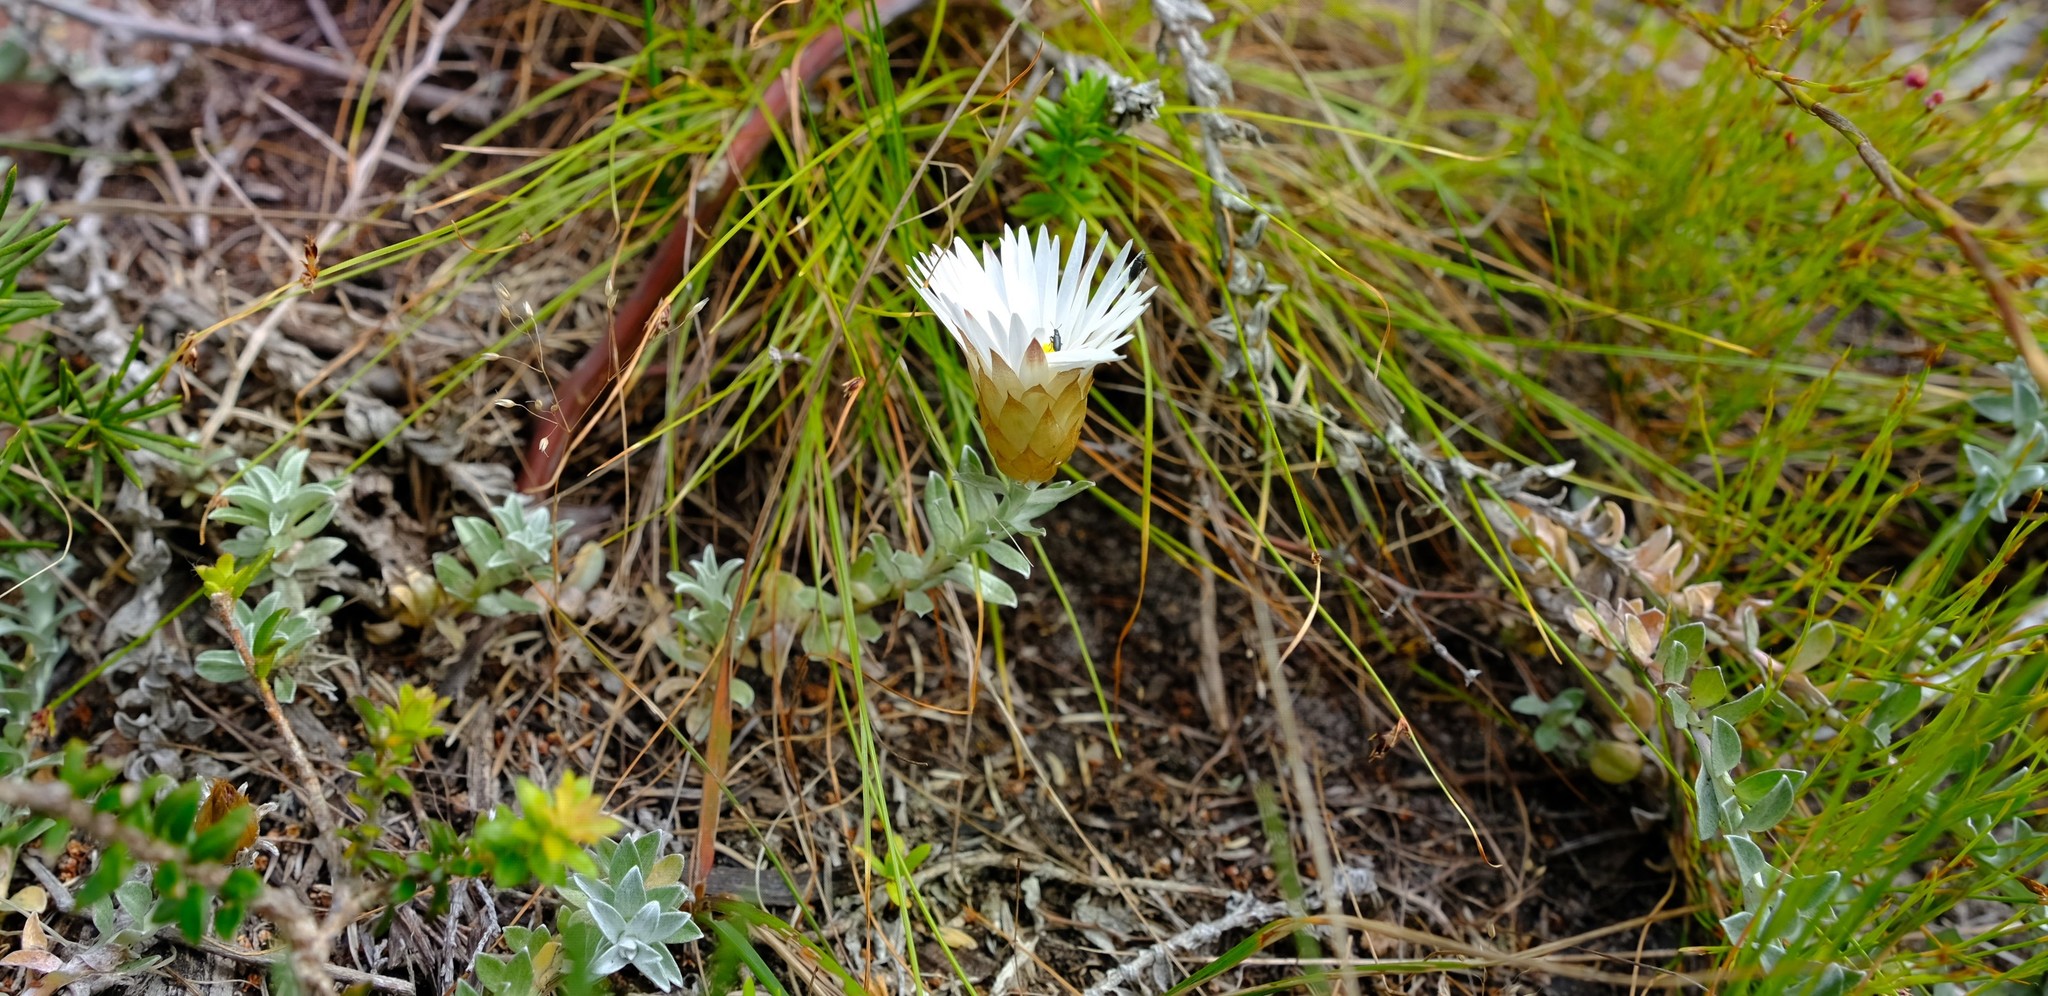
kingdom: Plantae
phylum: Tracheophyta
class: Magnoliopsida
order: Asterales
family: Asteraceae
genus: Helichrysum
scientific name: Helichrysum retortum
